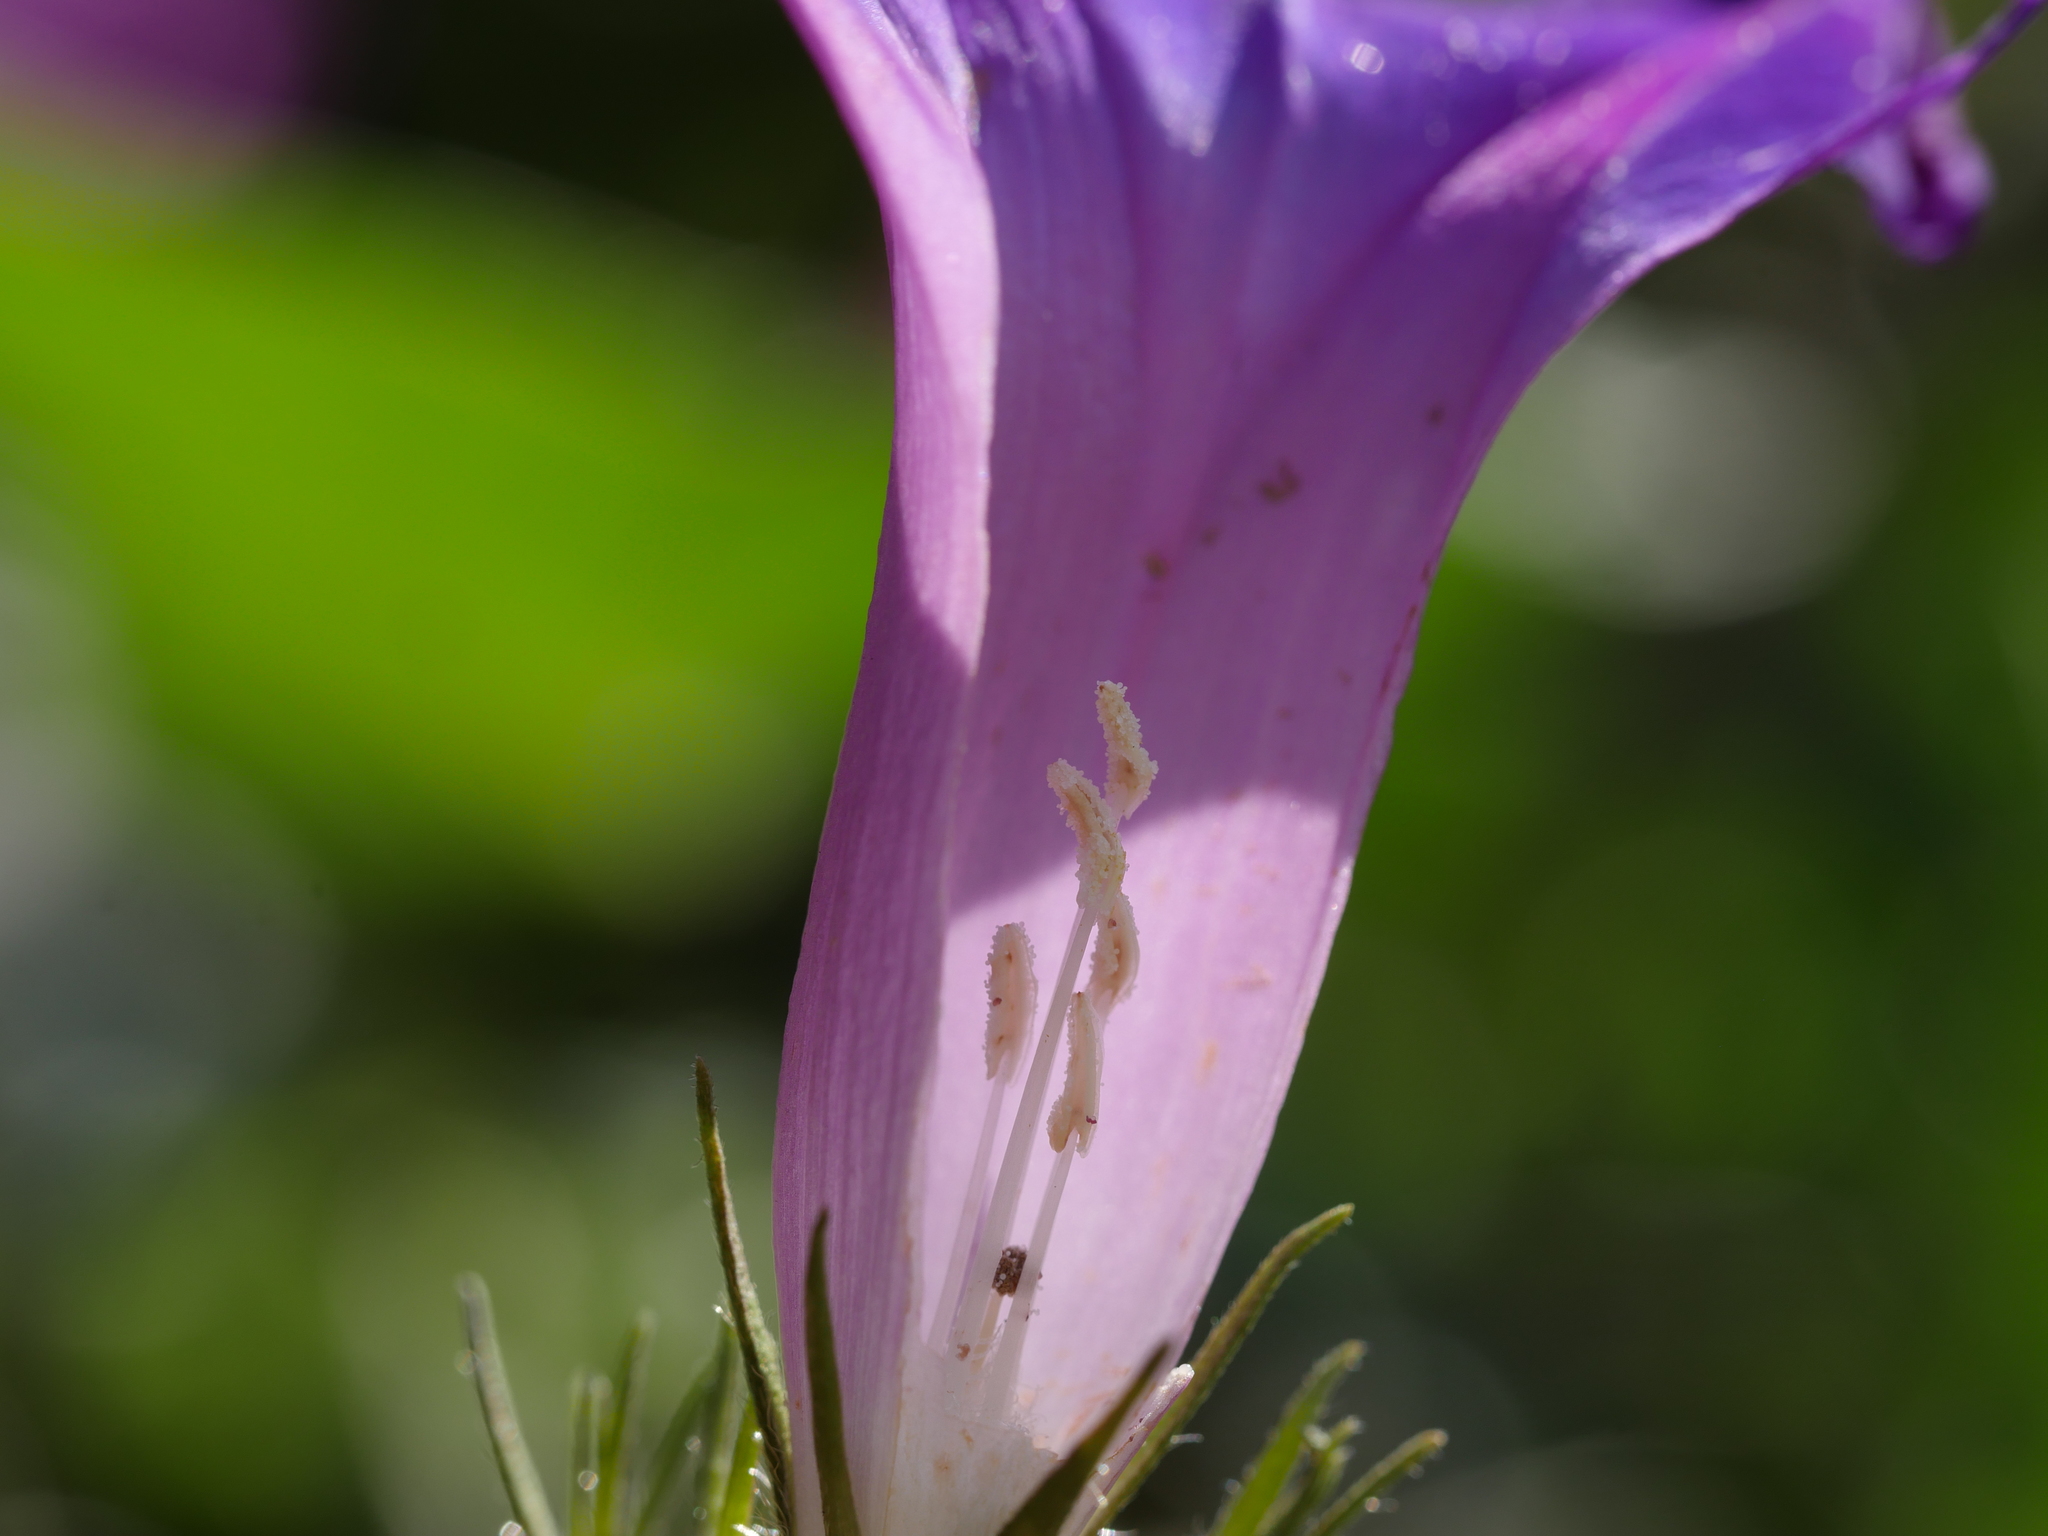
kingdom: Plantae
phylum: Tracheophyta
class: Magnoliopsida
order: Solanales
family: Convolvulaceae
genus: Ipomoea
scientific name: Ipomoea indica
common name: Blue dawnflower
